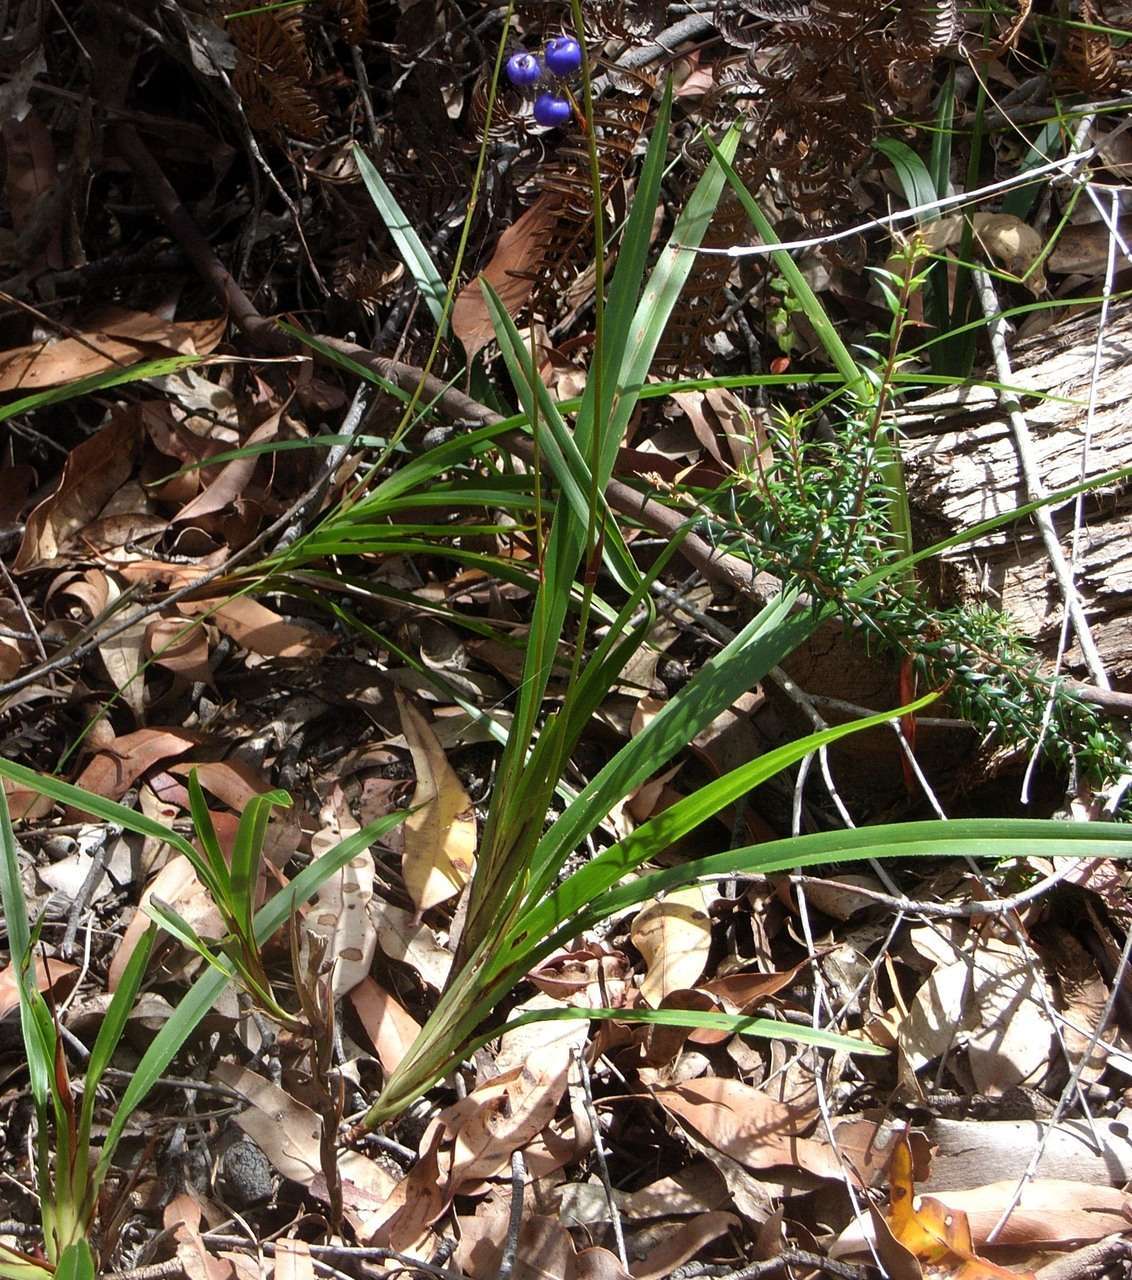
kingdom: Plantae
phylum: Tracheophyta
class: Liliopsida
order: Asparagales
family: Asphodelaceae
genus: Dianella
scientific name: Dianella caerulea
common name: Blue flax-lily
